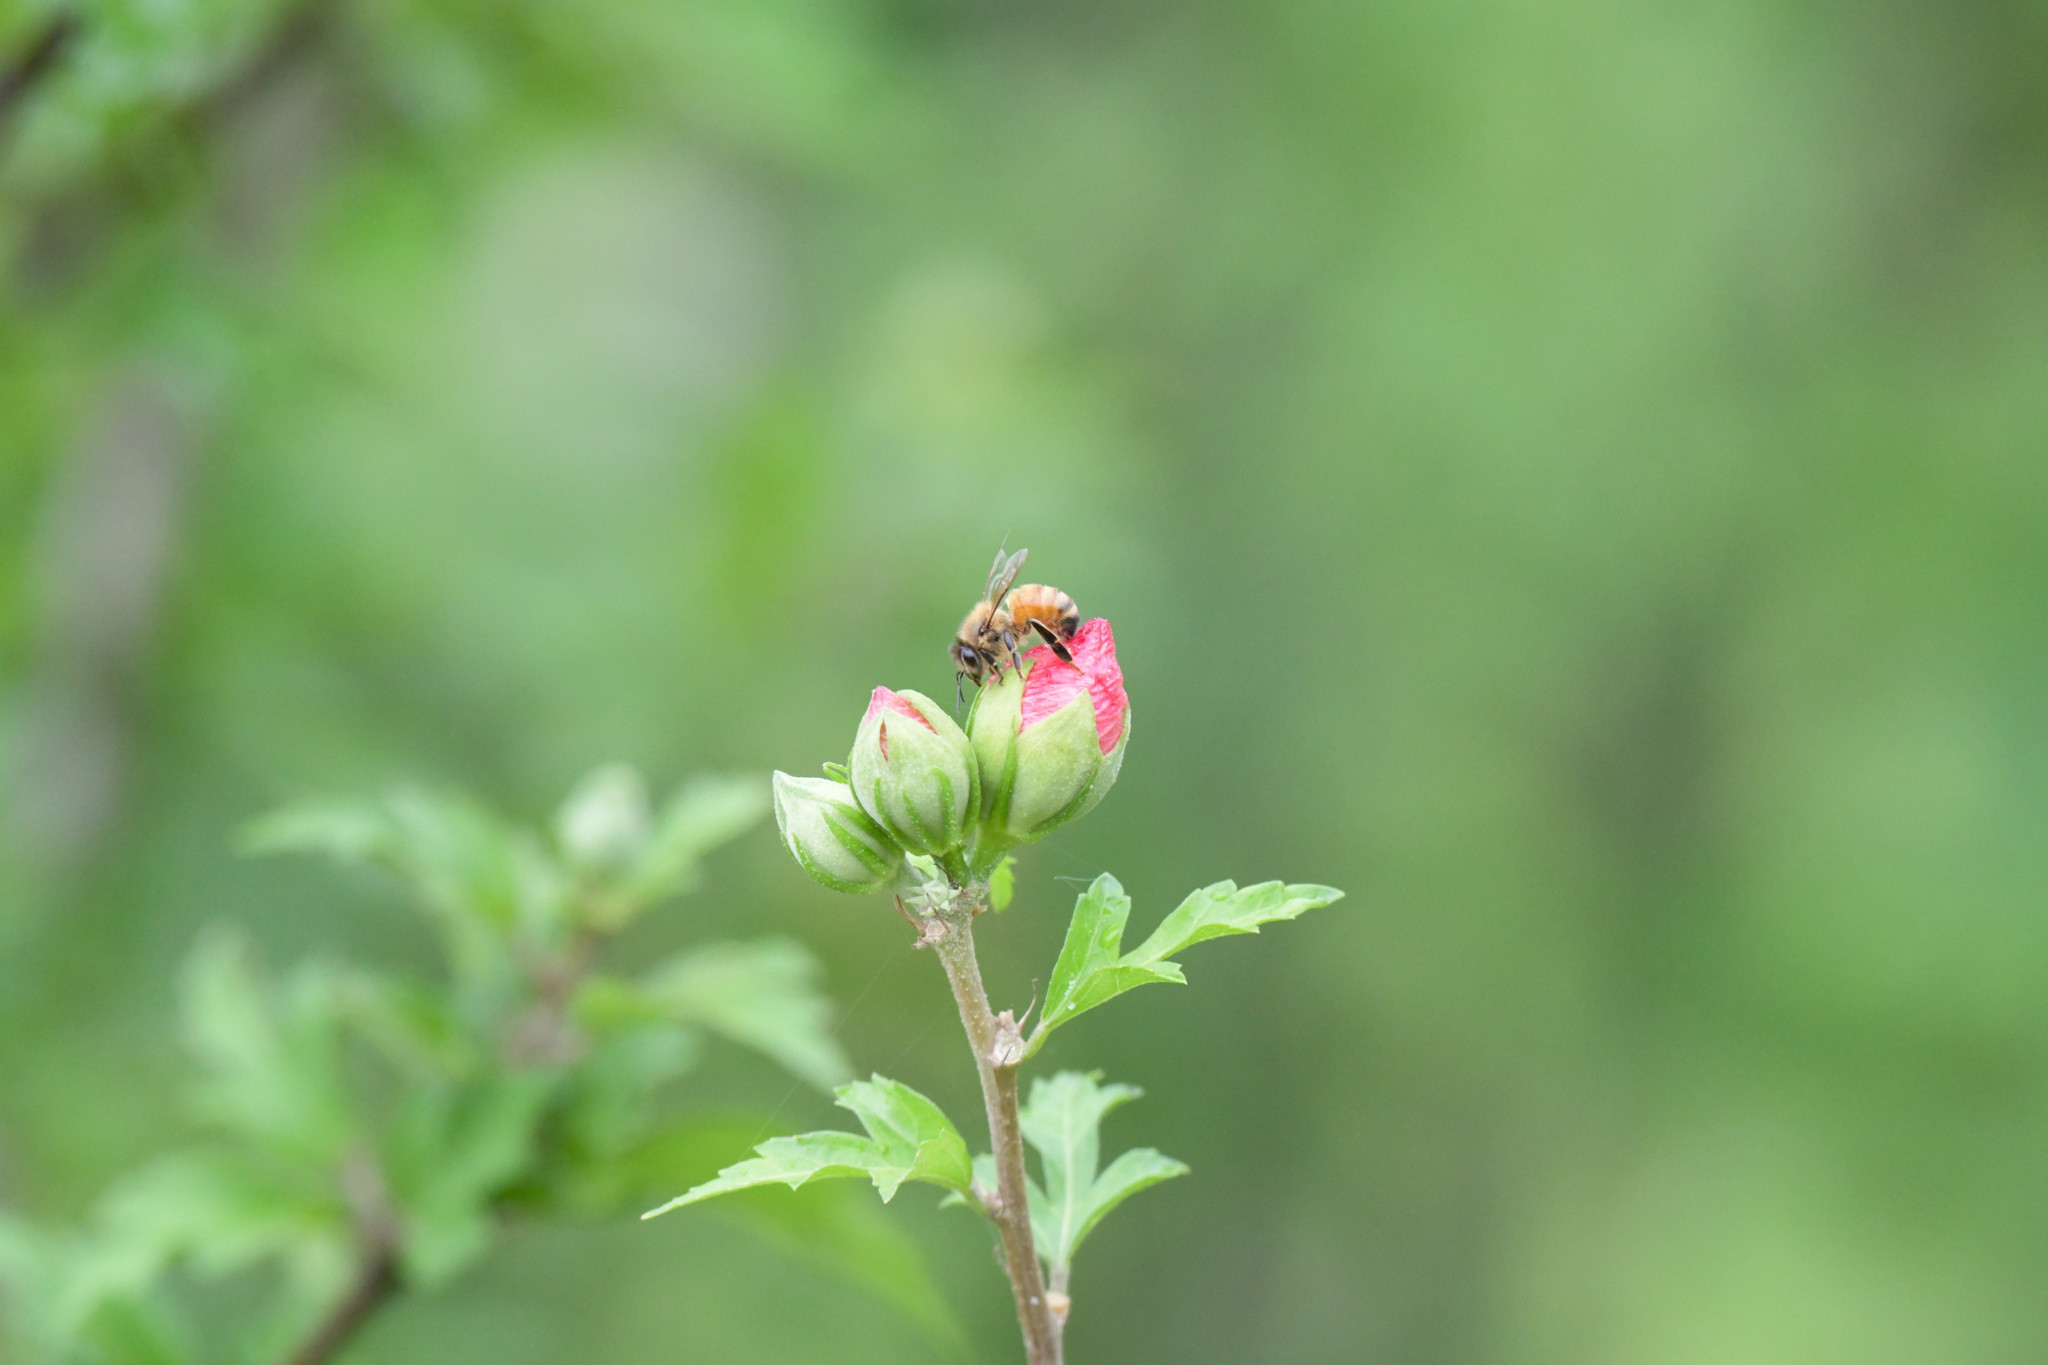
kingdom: Animalia
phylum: Arthropoda
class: Insecta
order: Hymenoptera
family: Apidae
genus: Apis
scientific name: Apis mellifera
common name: Honey bee
